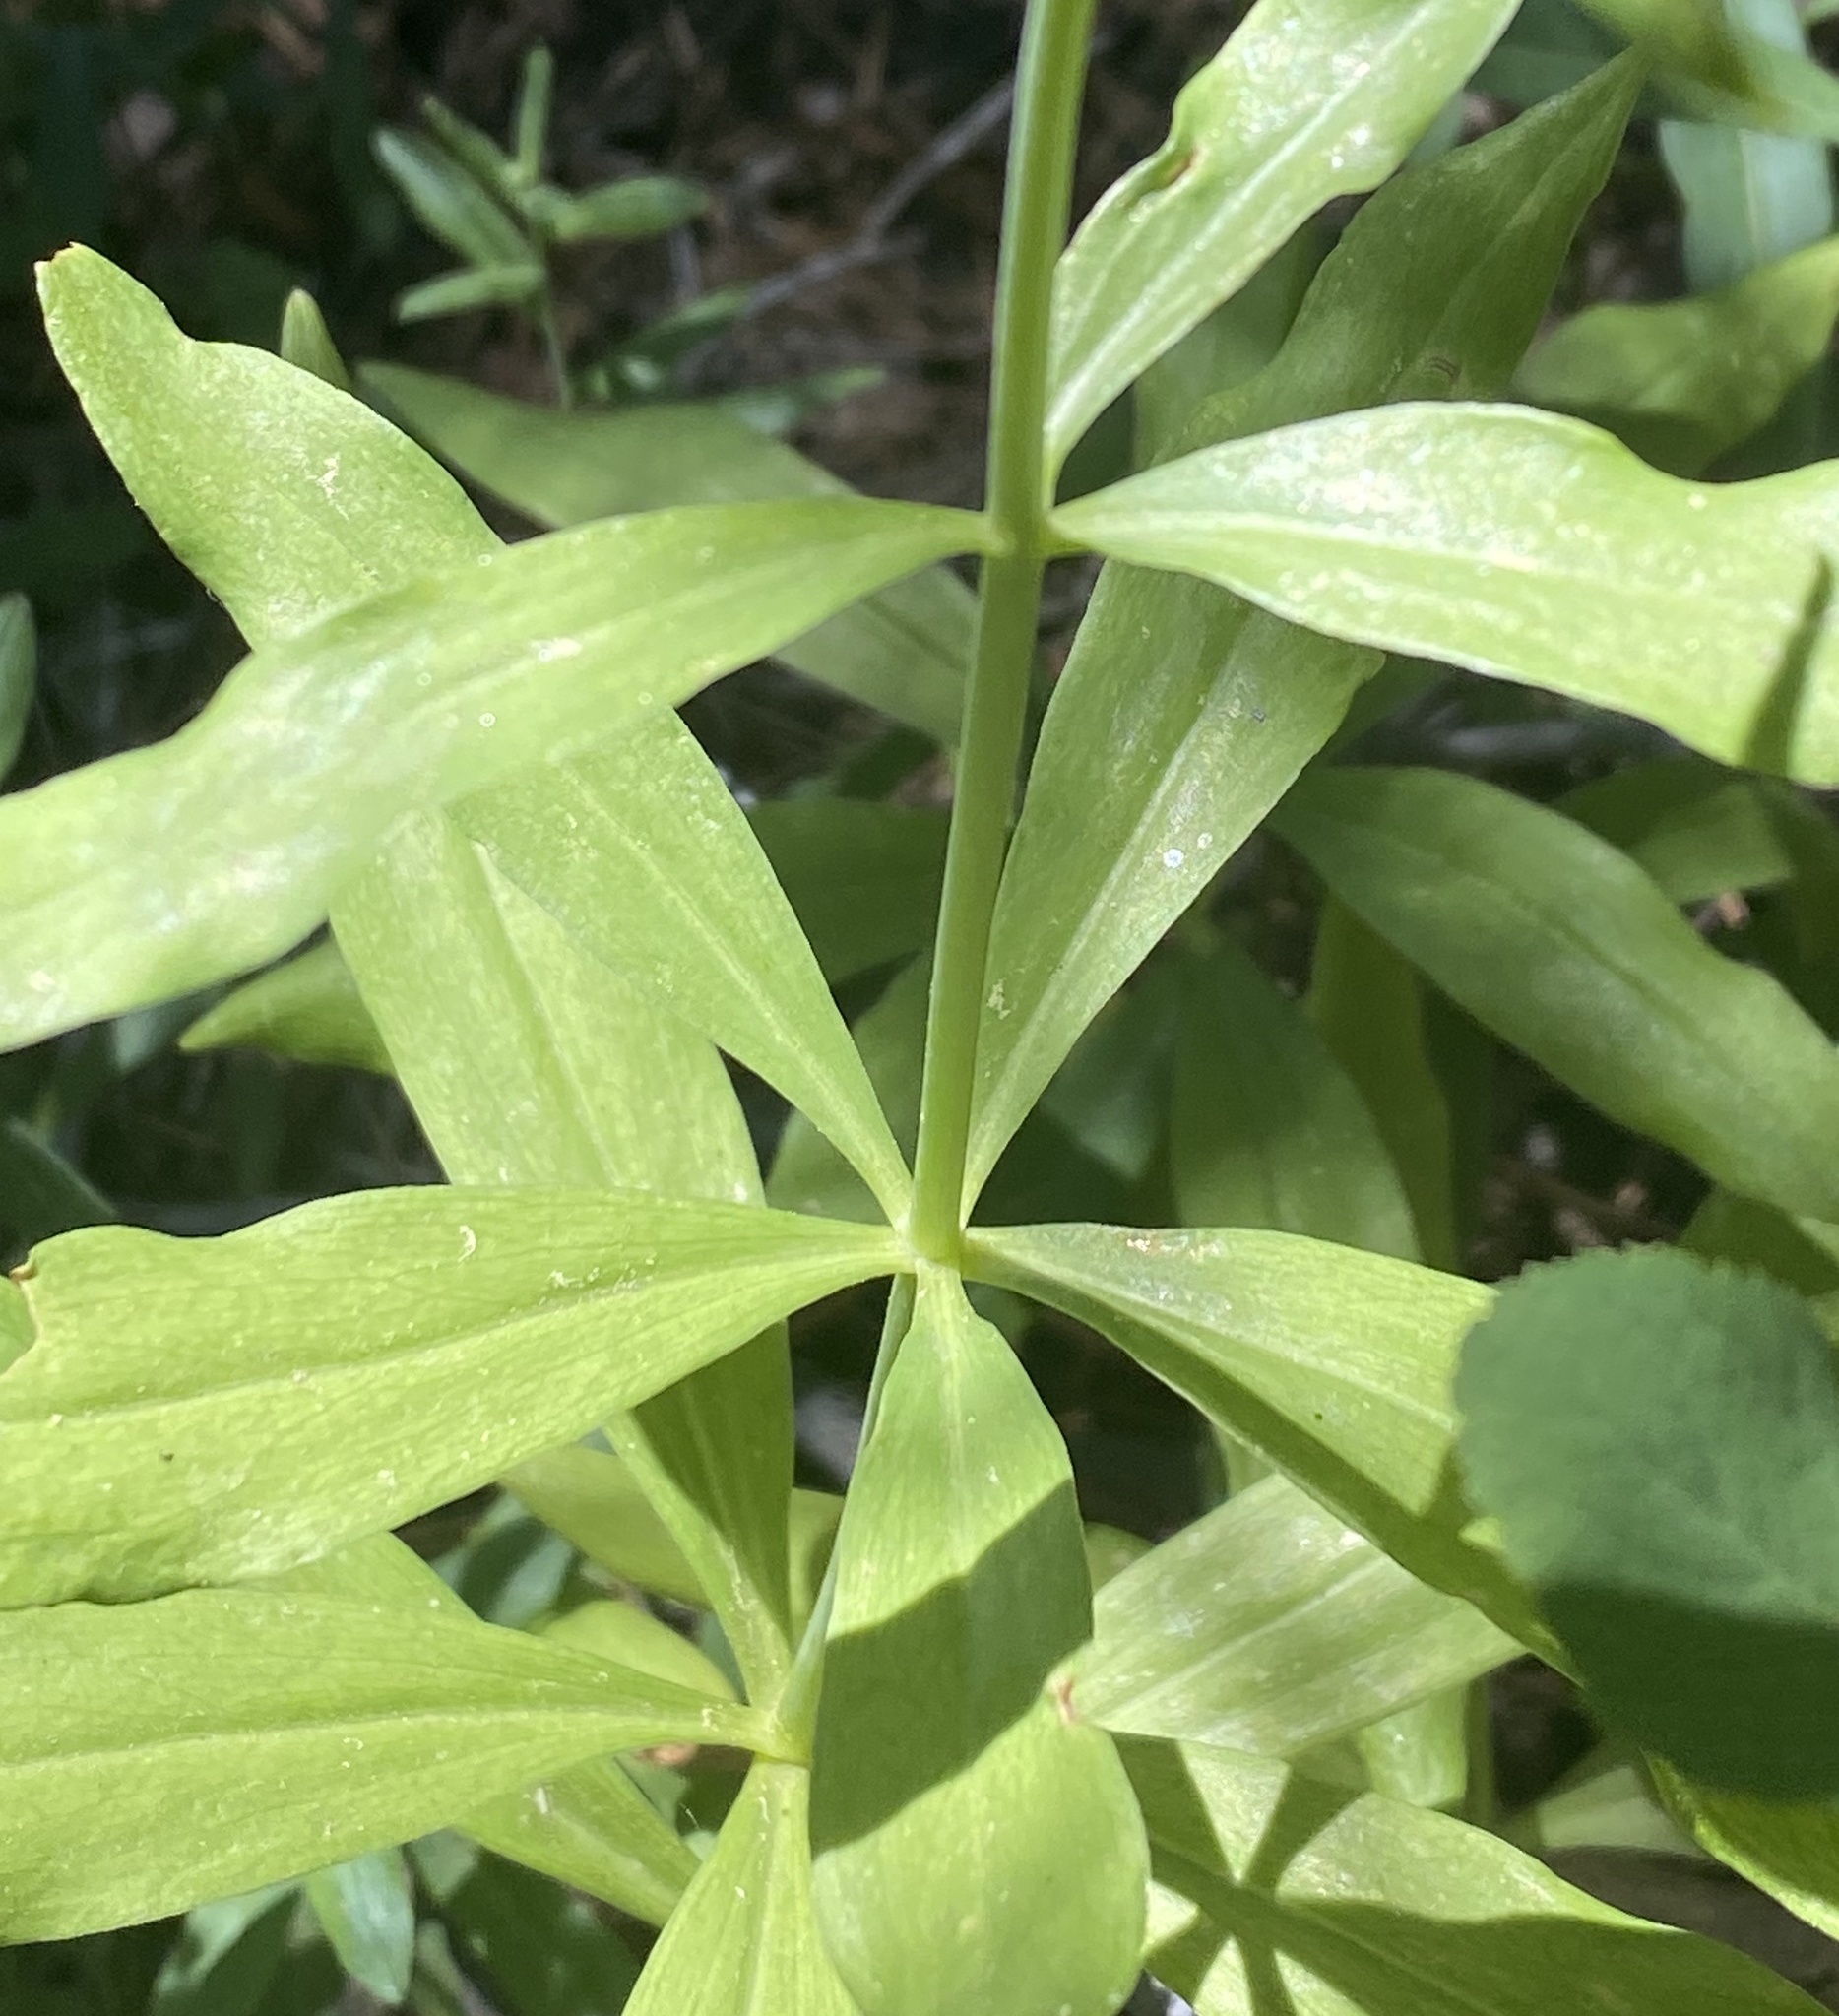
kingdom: Plantae
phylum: Tracheophyta
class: Liliopsida
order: Liliales
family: Liliaceae
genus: Lilium
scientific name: Lilium parvum
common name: Alpine lily
